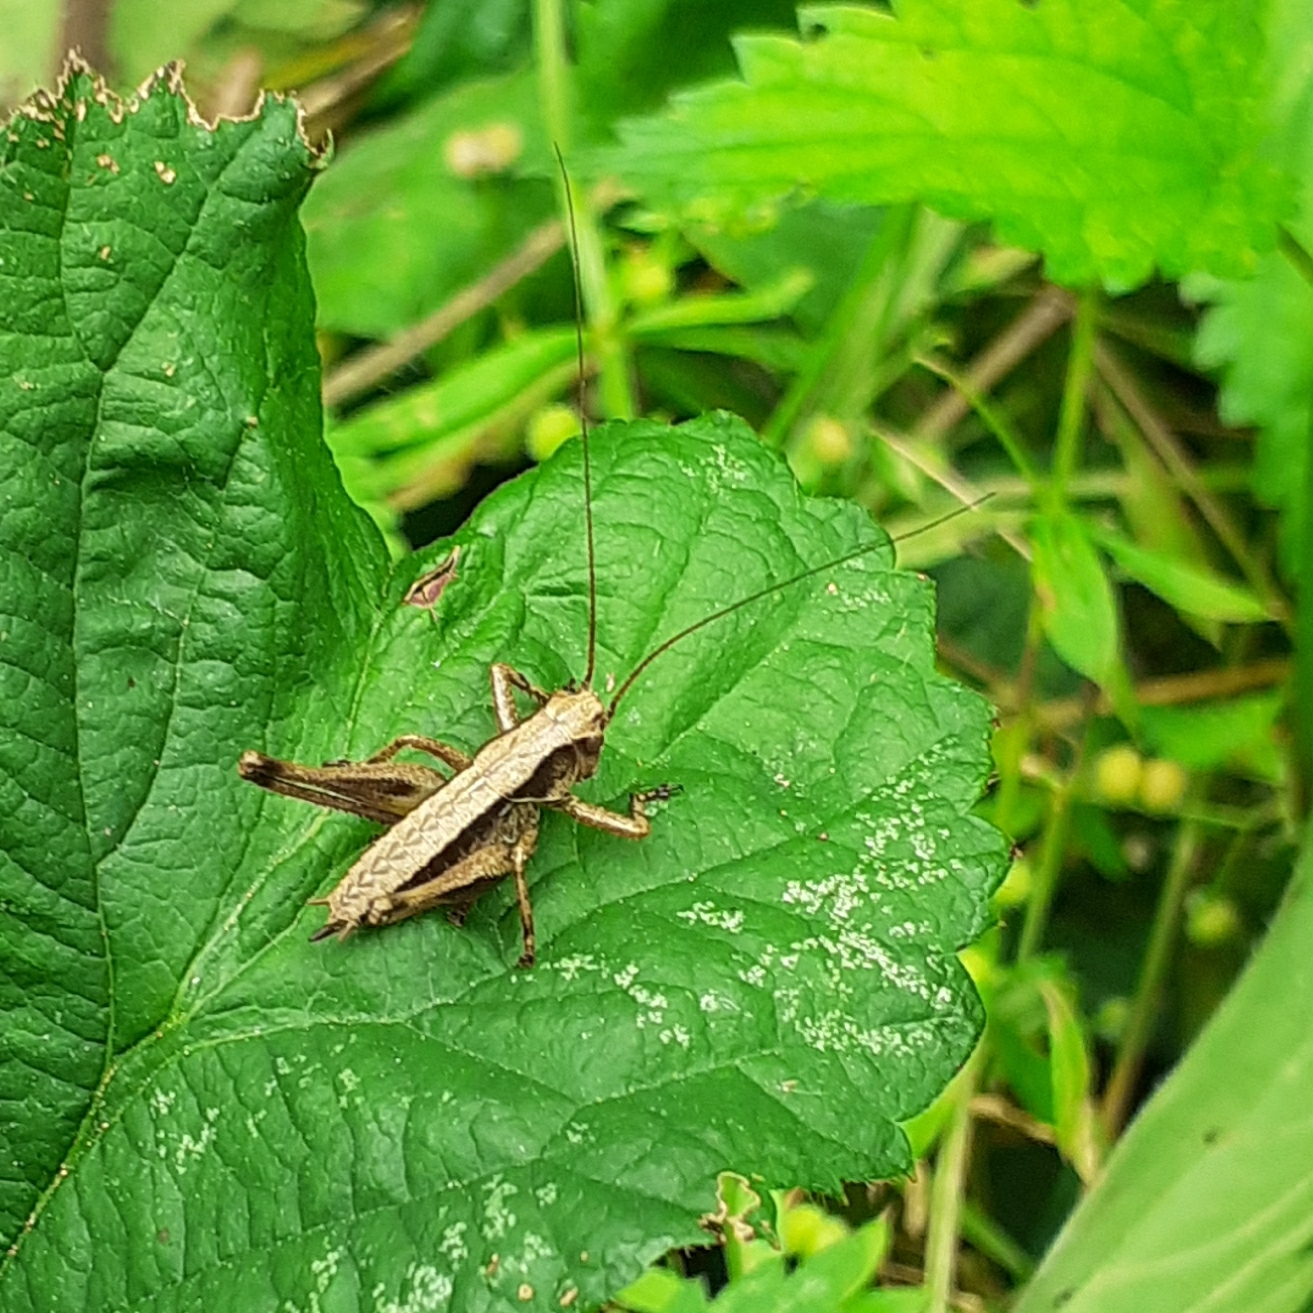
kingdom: Animalia
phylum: Arthropoda
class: Insecta
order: Orthoptera
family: Tettigoniidae
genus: Pholidoptera
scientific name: Pholidoptera griseoaptera
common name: Dark bush-cricket
